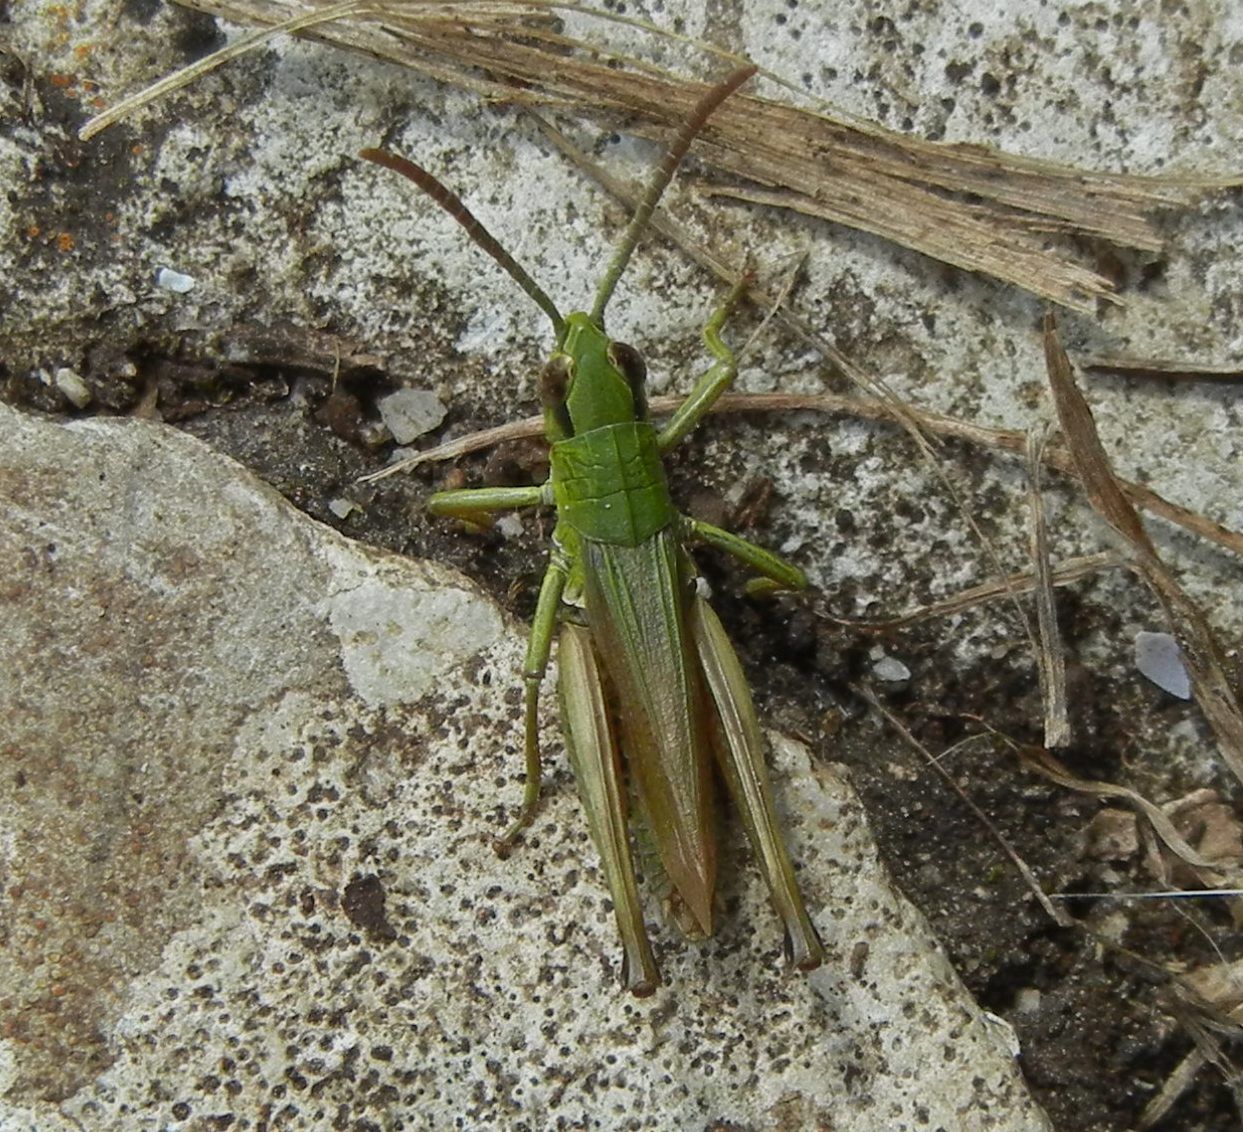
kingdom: Animalia
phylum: Arthropoda
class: Insecta
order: Orthoptera
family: Acrididae
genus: Pseudochorthippus
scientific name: Pseudochorthippus parallelus
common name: Meadow grasshopper
